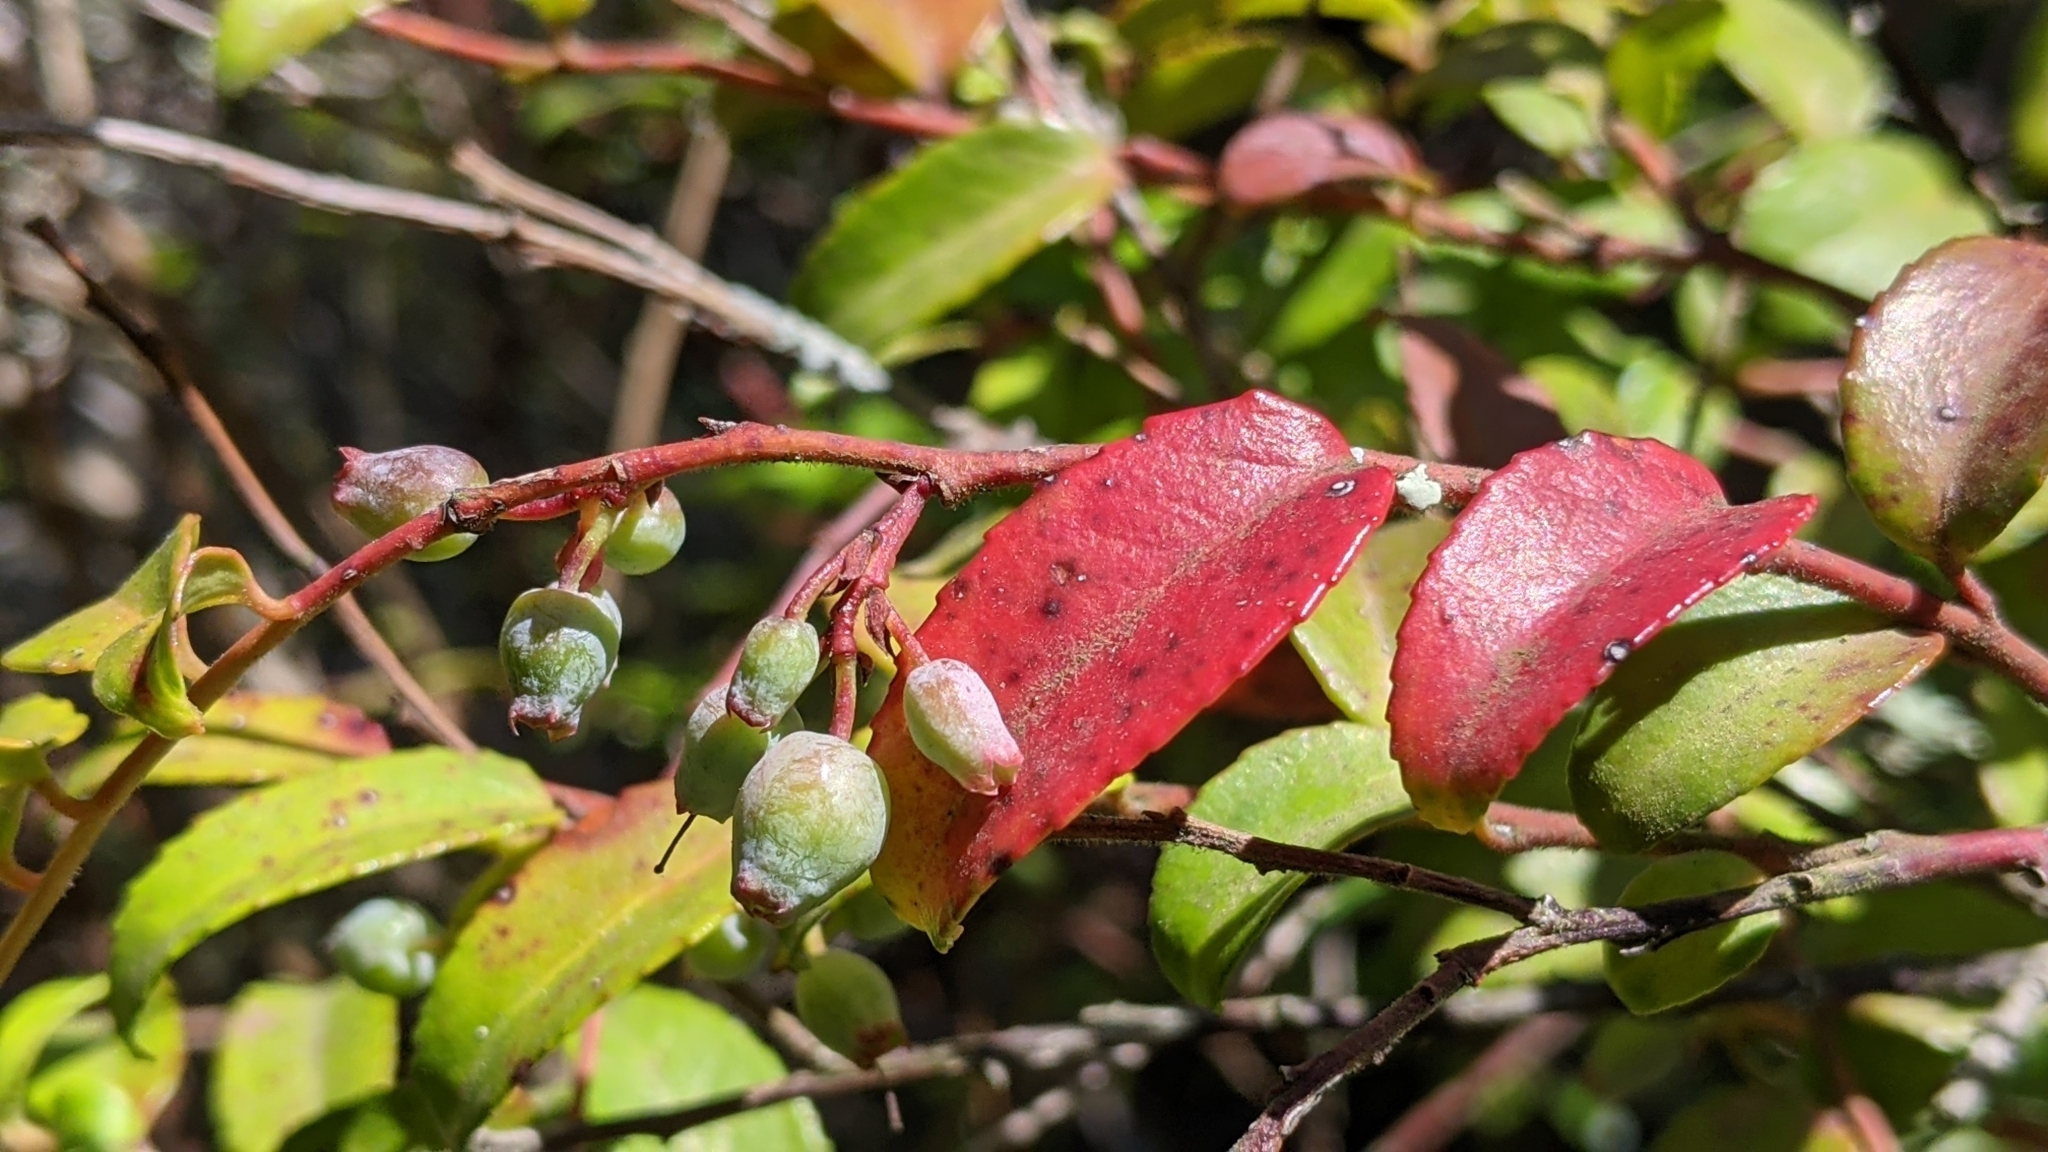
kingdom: Plantae
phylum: Tracheophyta
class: Magnoliopsida
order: Ericales
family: Ericaceae
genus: Vaccinium
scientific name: Vaccinium ovatum
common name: California-huckleberry
